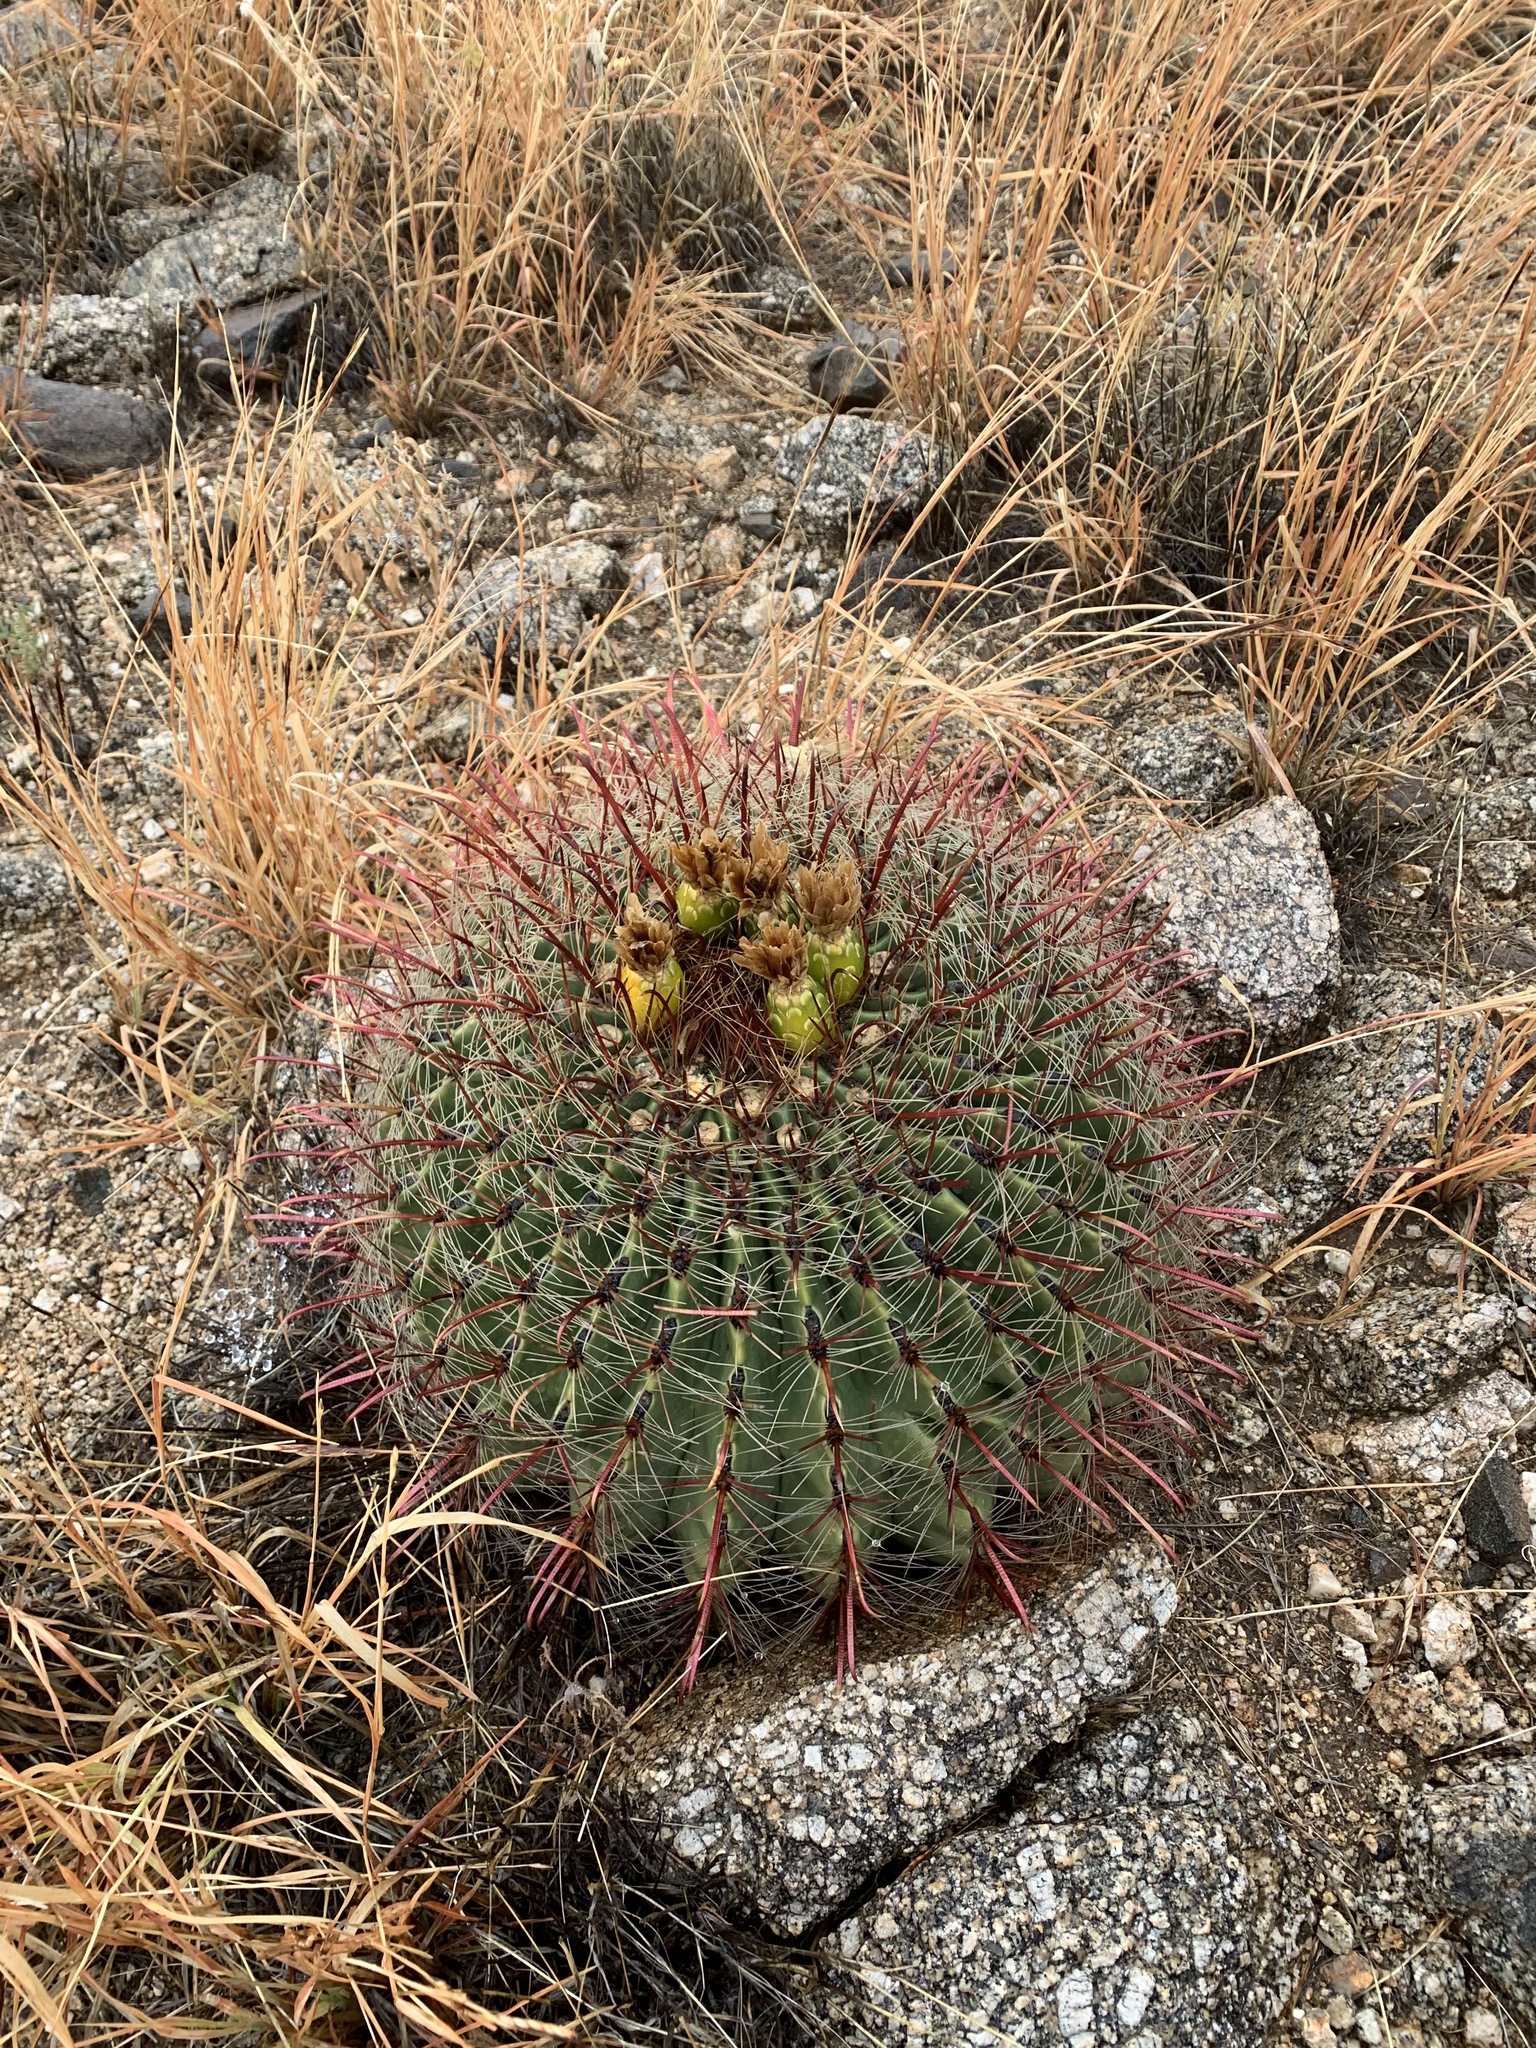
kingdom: Plantae
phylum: Tracheophyta
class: Magnoliopsida
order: Caryophyllales
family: Cactaceae
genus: Ferocactus
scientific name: Ferocactus wislizeni
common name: Candy barrel cactus
